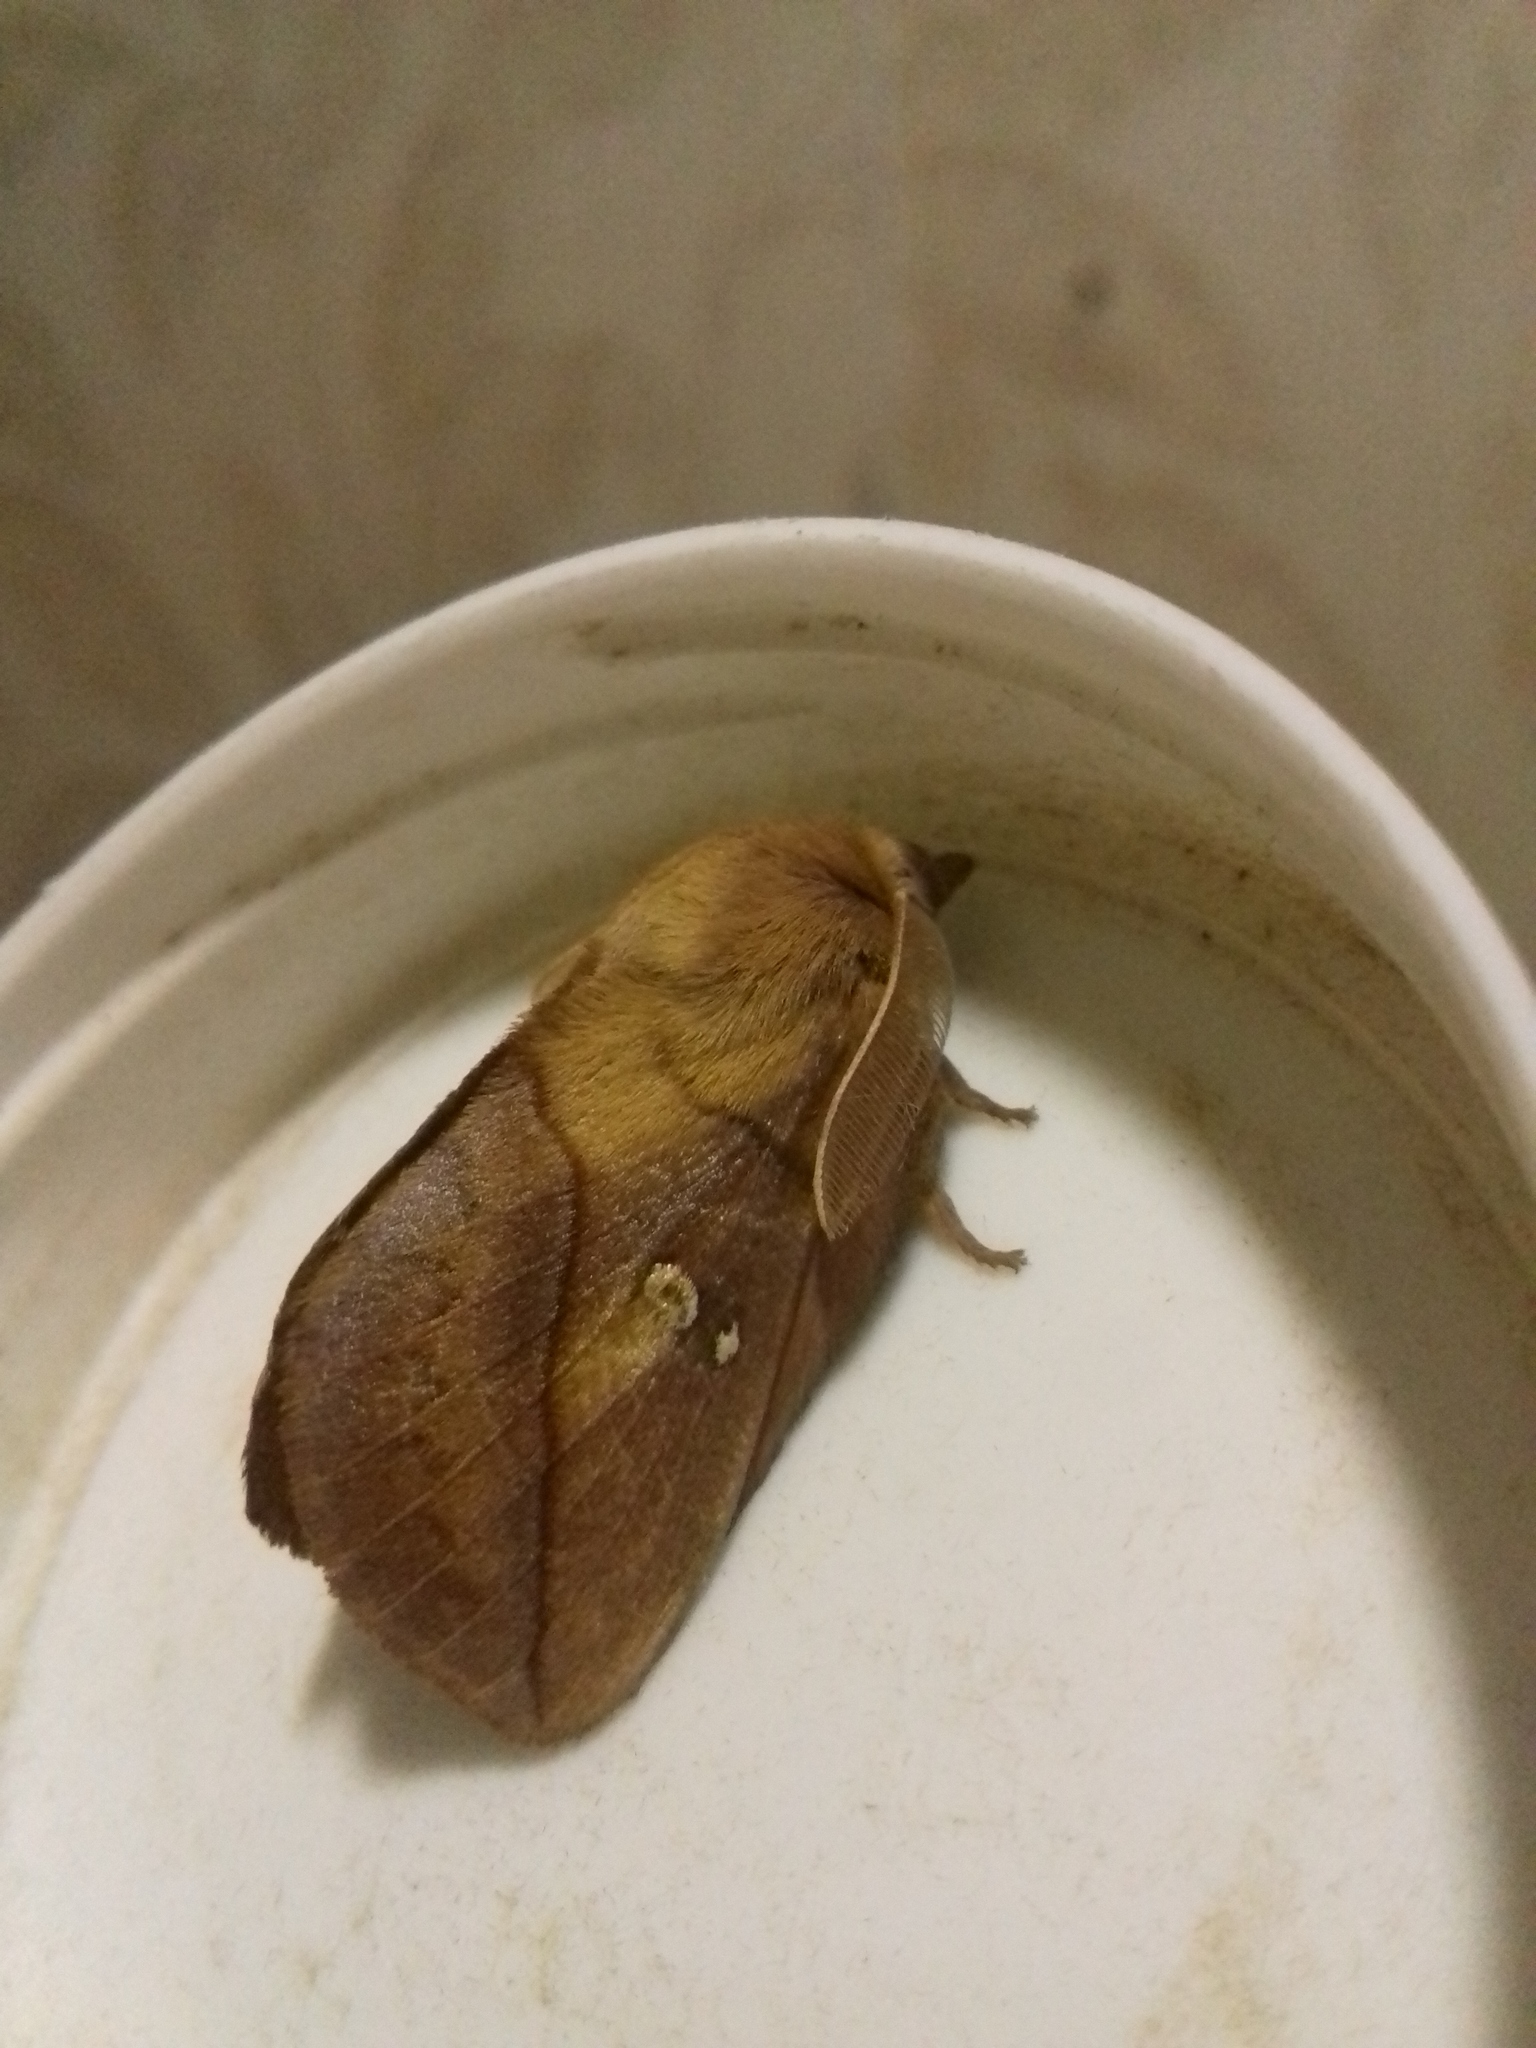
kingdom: Animalia
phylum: Arthropoda
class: Insecta
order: Lepidoptera
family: Lasiocampidae
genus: Euthrix
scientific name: Euthrix potatoria
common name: Drinker
